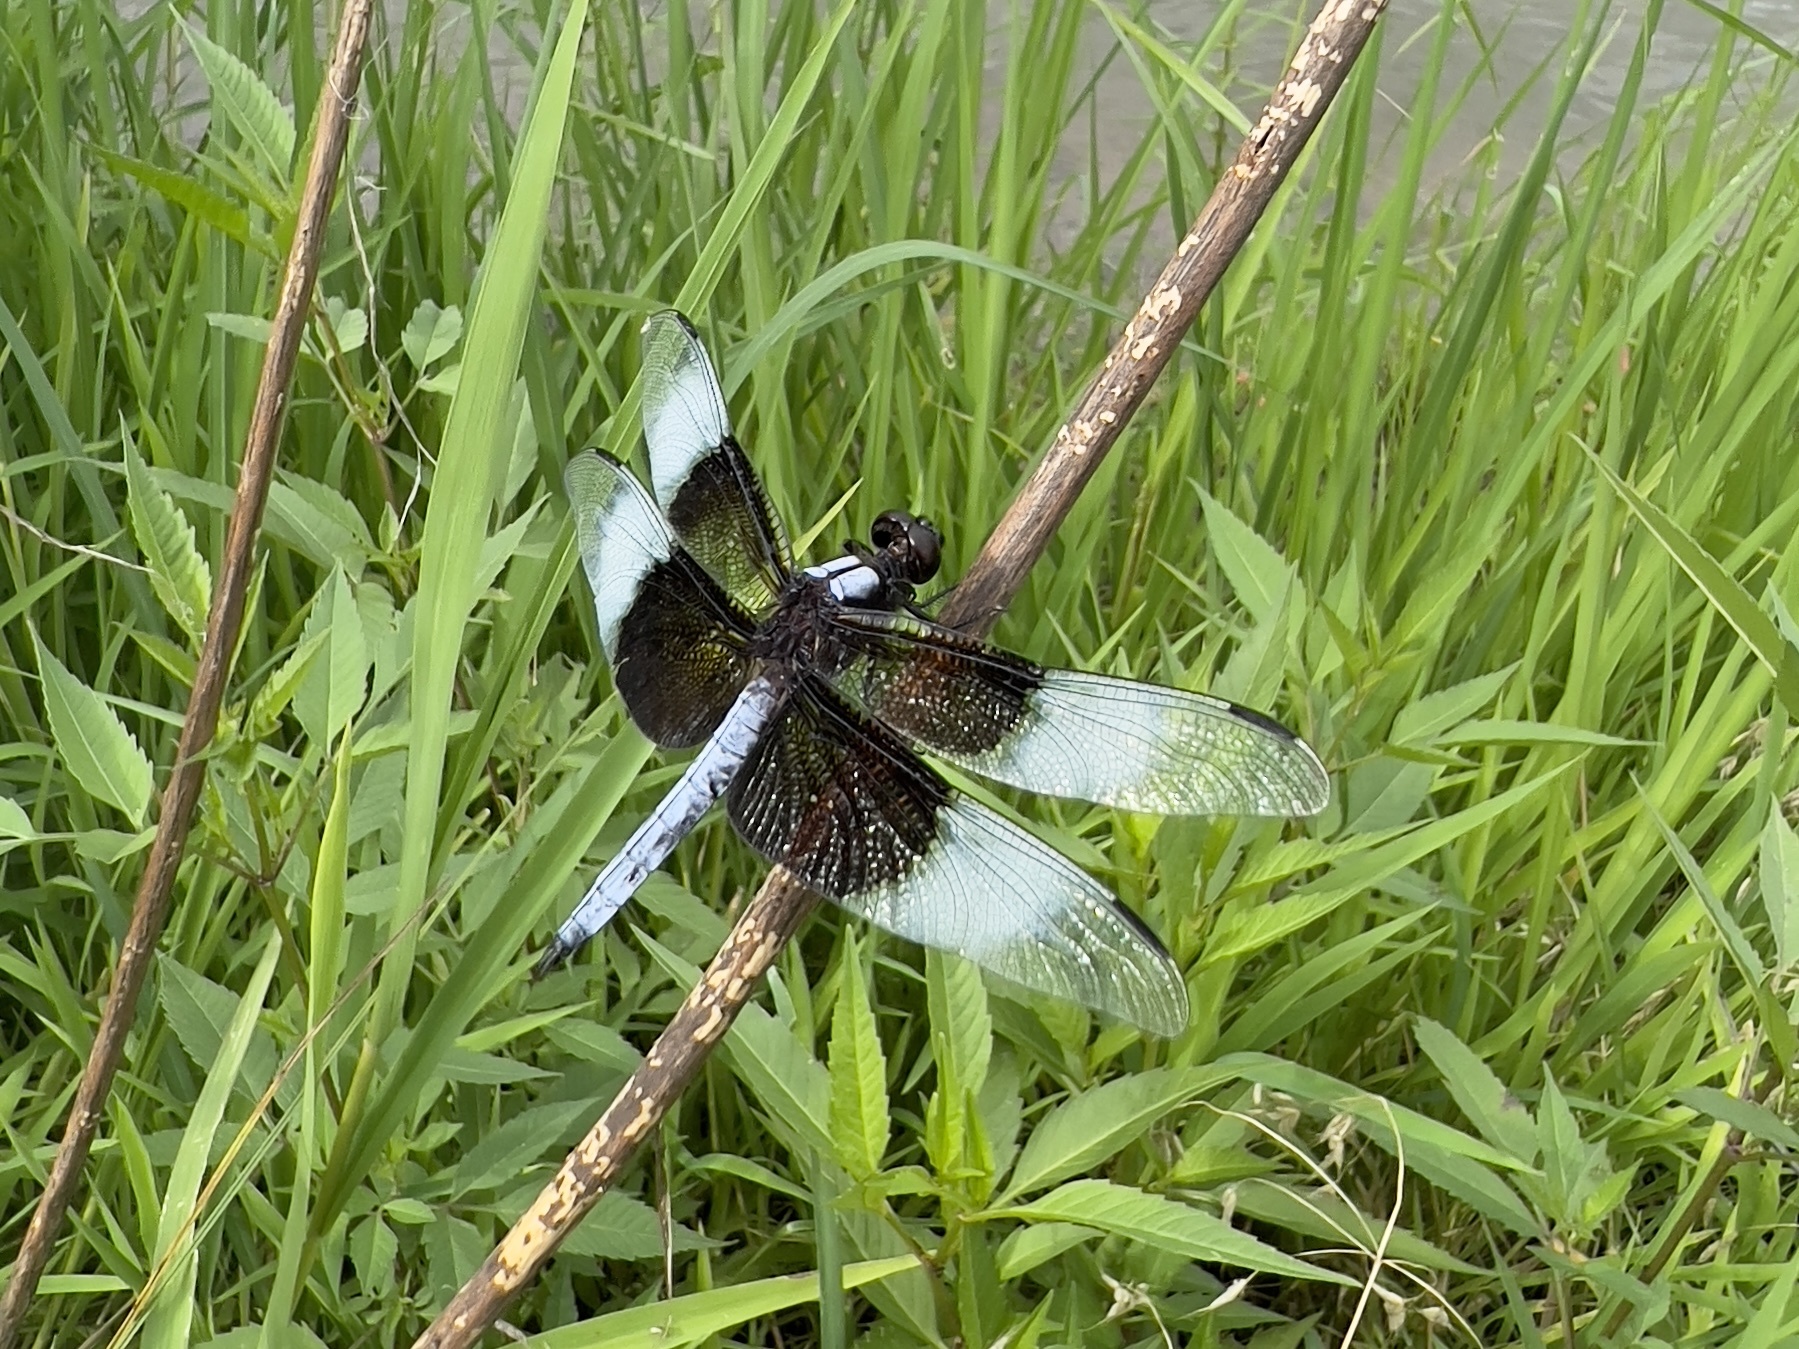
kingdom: Animalia
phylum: Arthropoda
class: Insecta
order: Odonata
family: Libellulidae
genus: Libellula
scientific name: Libellula luctuosa
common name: Widow skimmer
